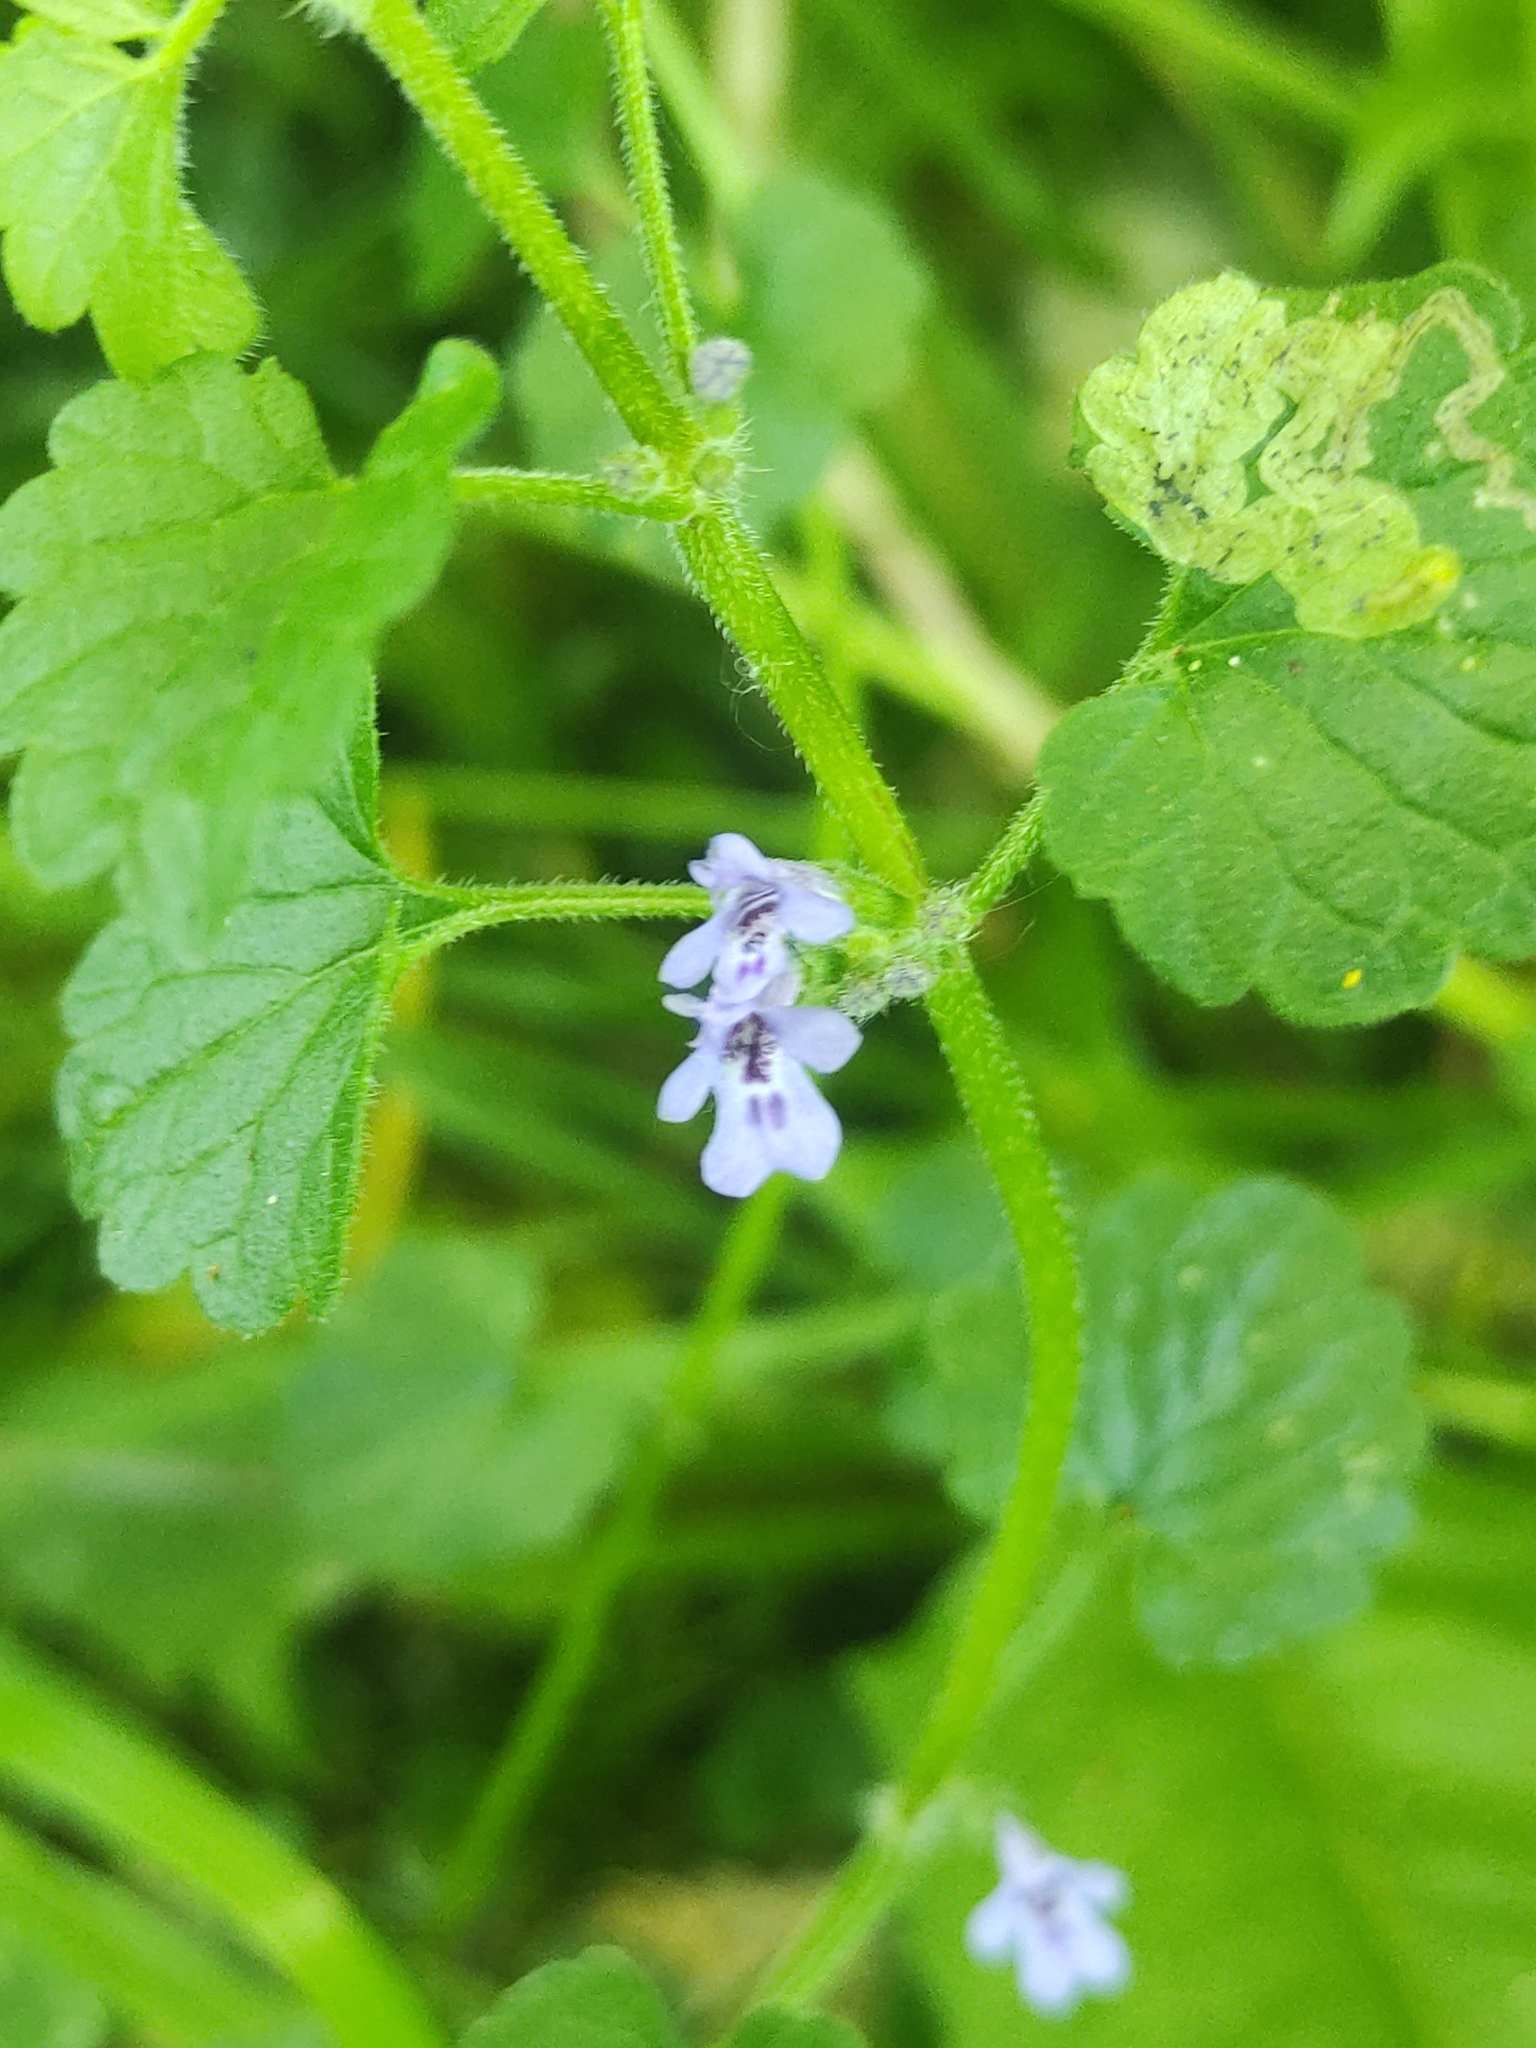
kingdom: Plantae
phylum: Tracheophyta
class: Magnoliopsida
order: Lamiales
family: Lamiaceae
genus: Glechoma
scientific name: Glechoma hederacea
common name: Ground ivy
